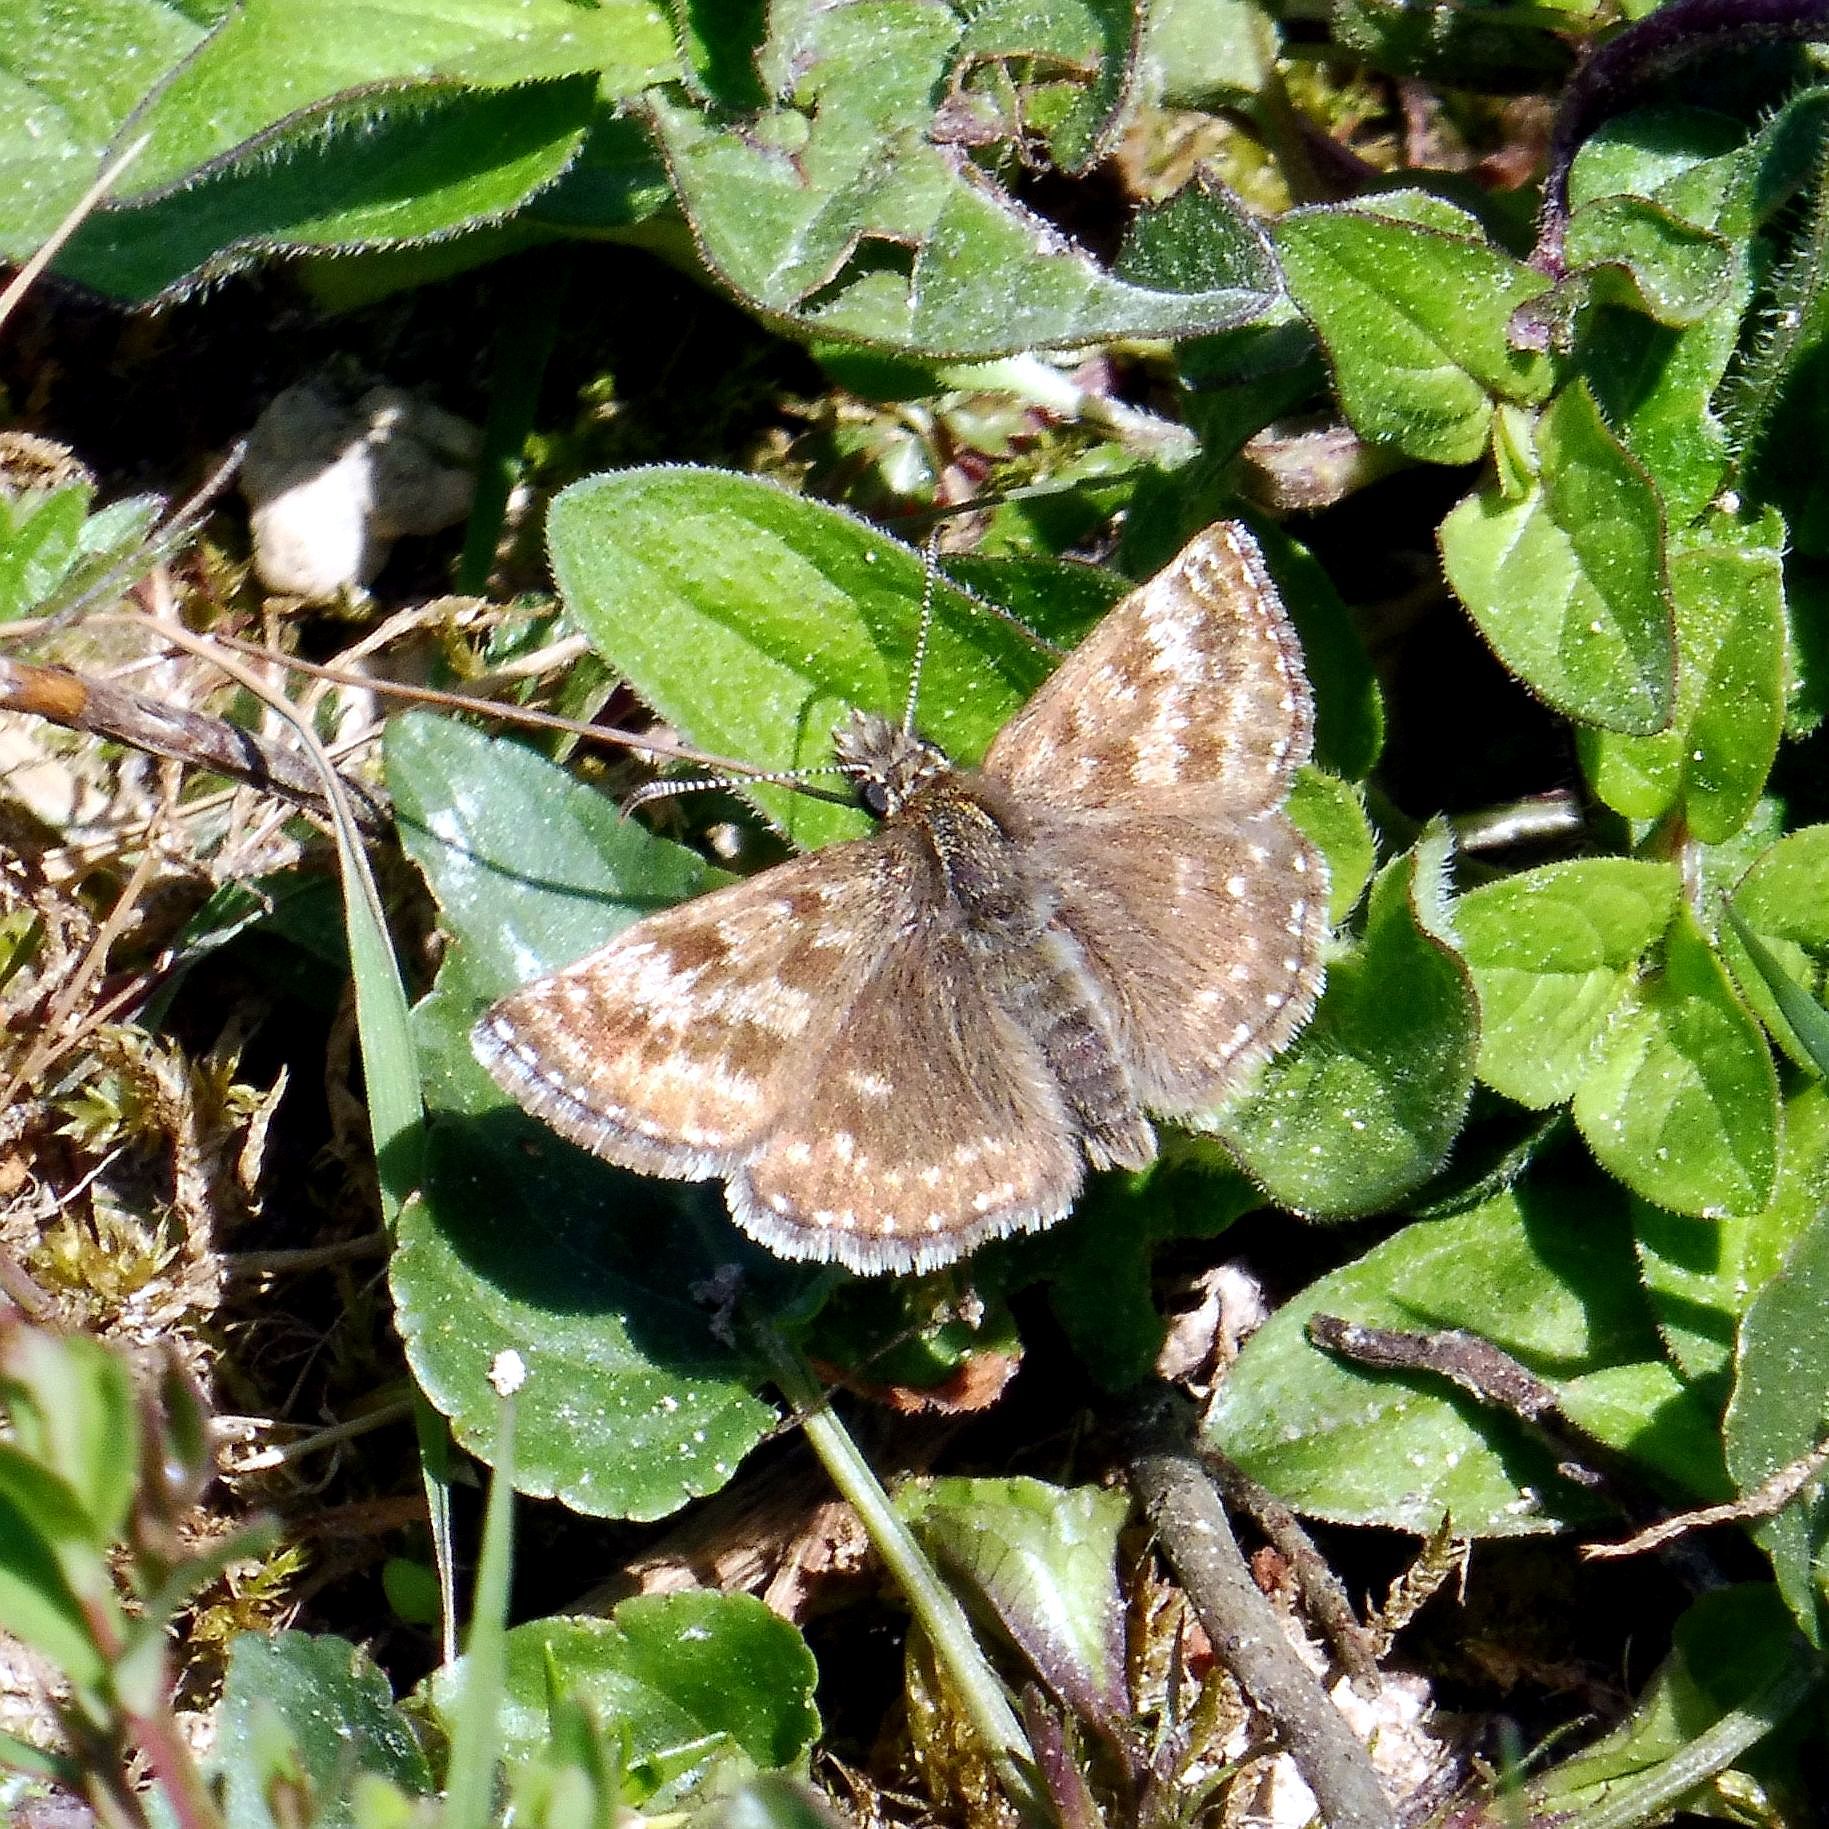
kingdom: Animalia
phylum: Arthropoda
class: Insecta
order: Lepidoptera
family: Hesperiidae
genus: Erynnis
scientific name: Erynnis tages
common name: Dingy skipper
